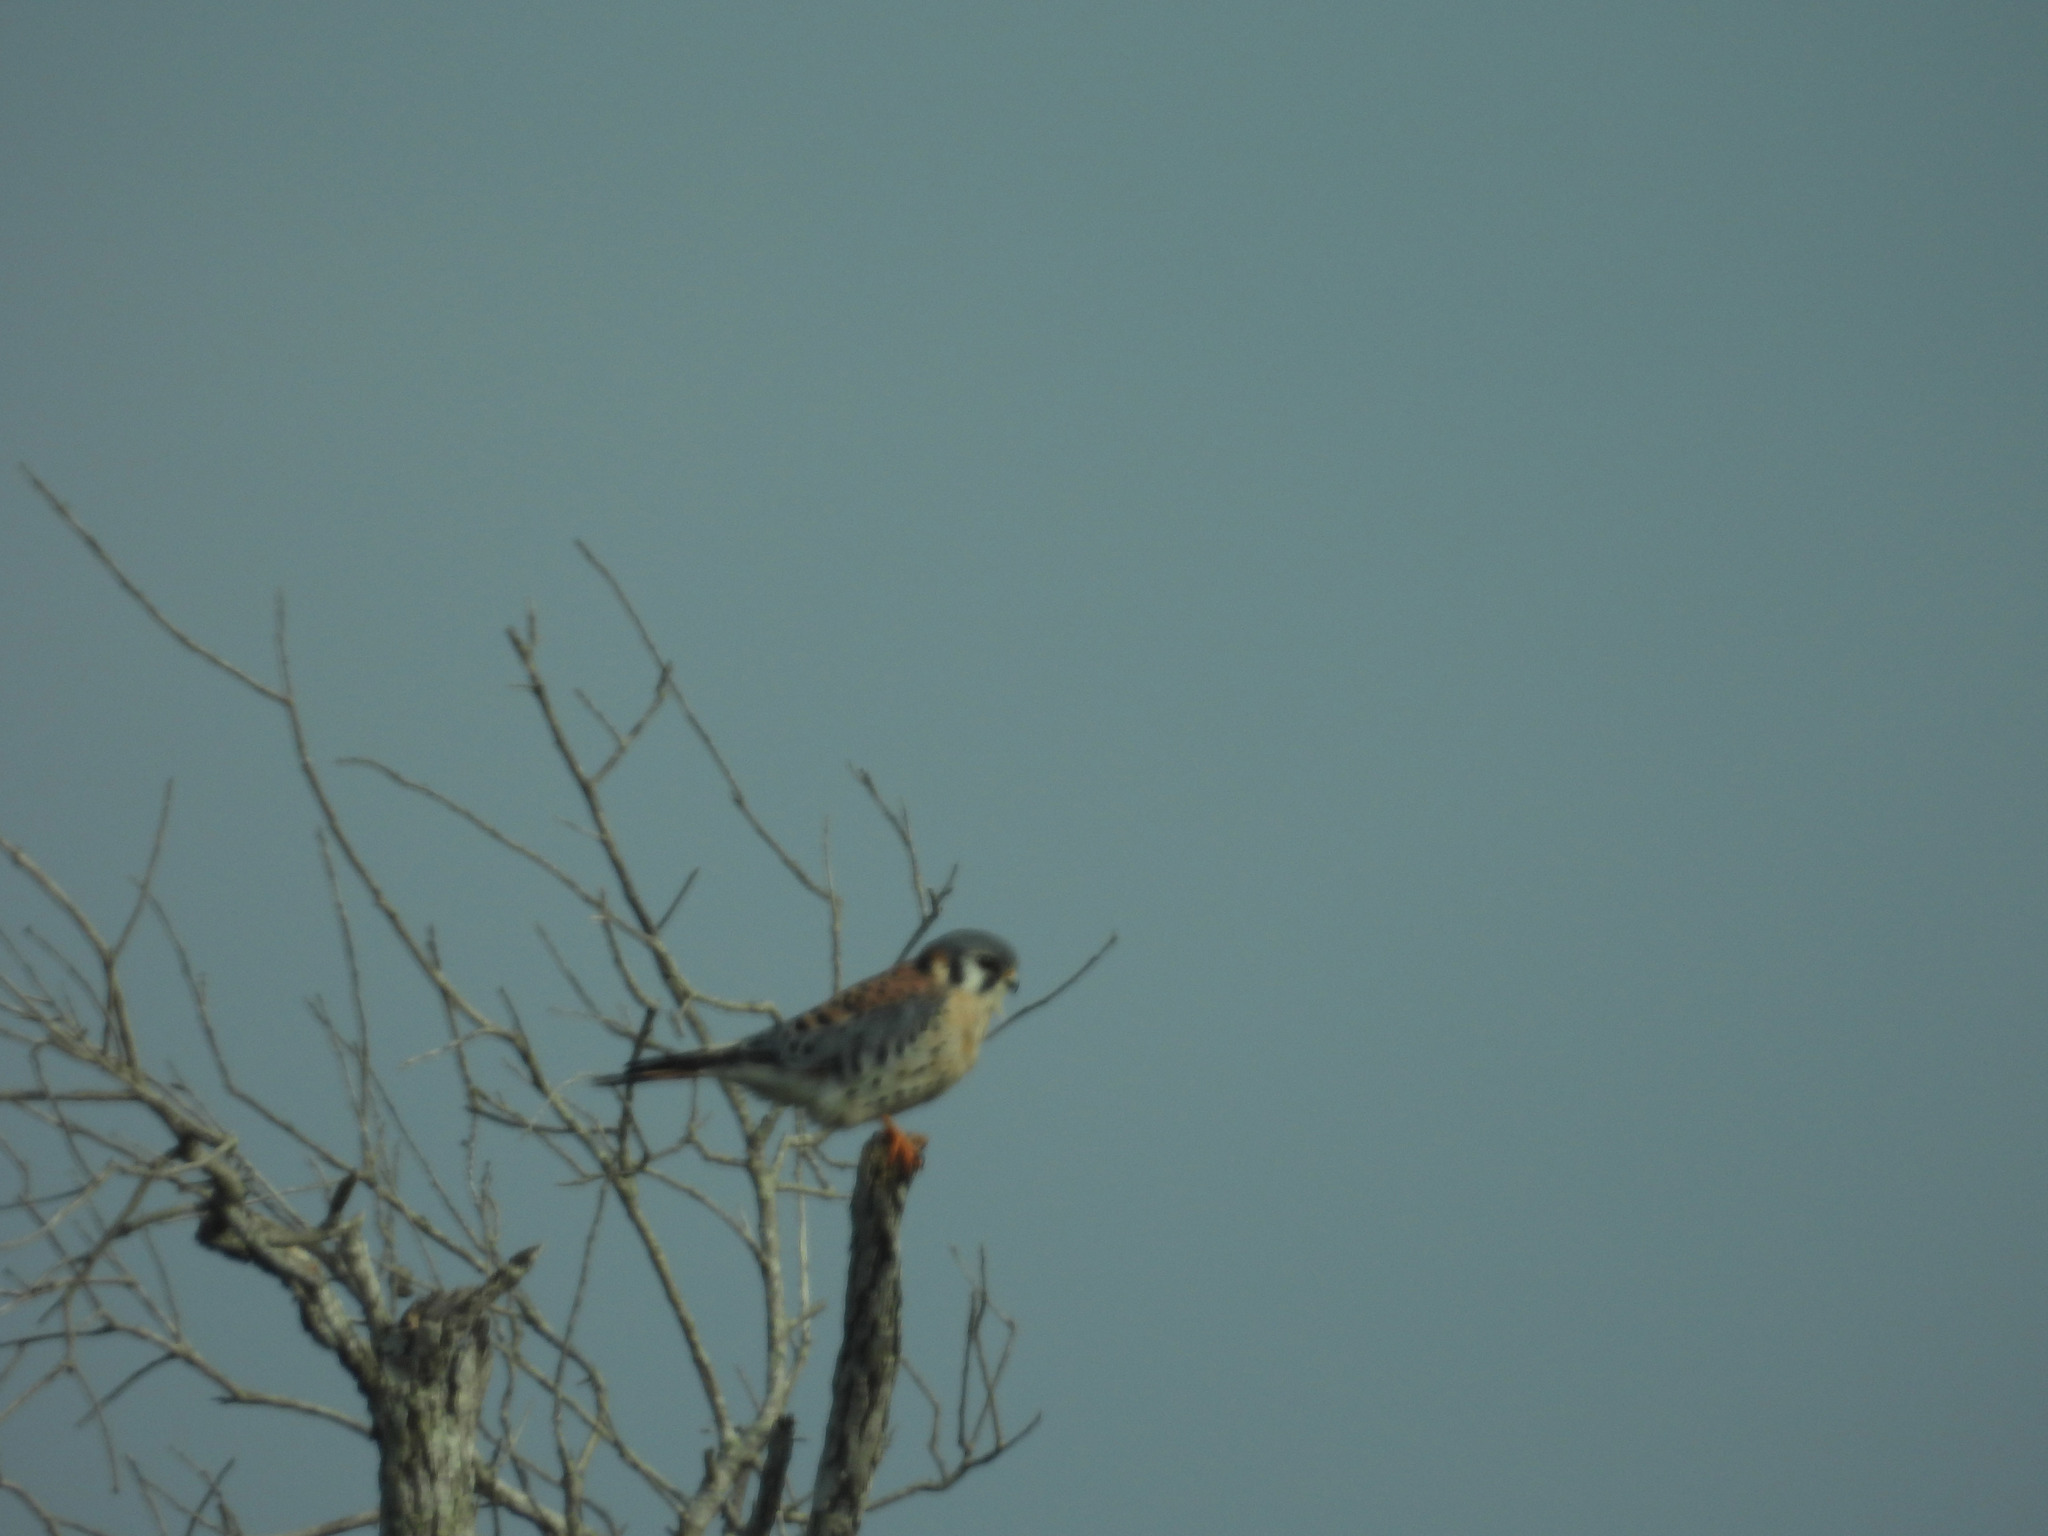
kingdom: Animalia
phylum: Chordata
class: Aves
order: Falconiformes
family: Falconidae
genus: Falco
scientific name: Falco sparverius
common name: American kestrel
